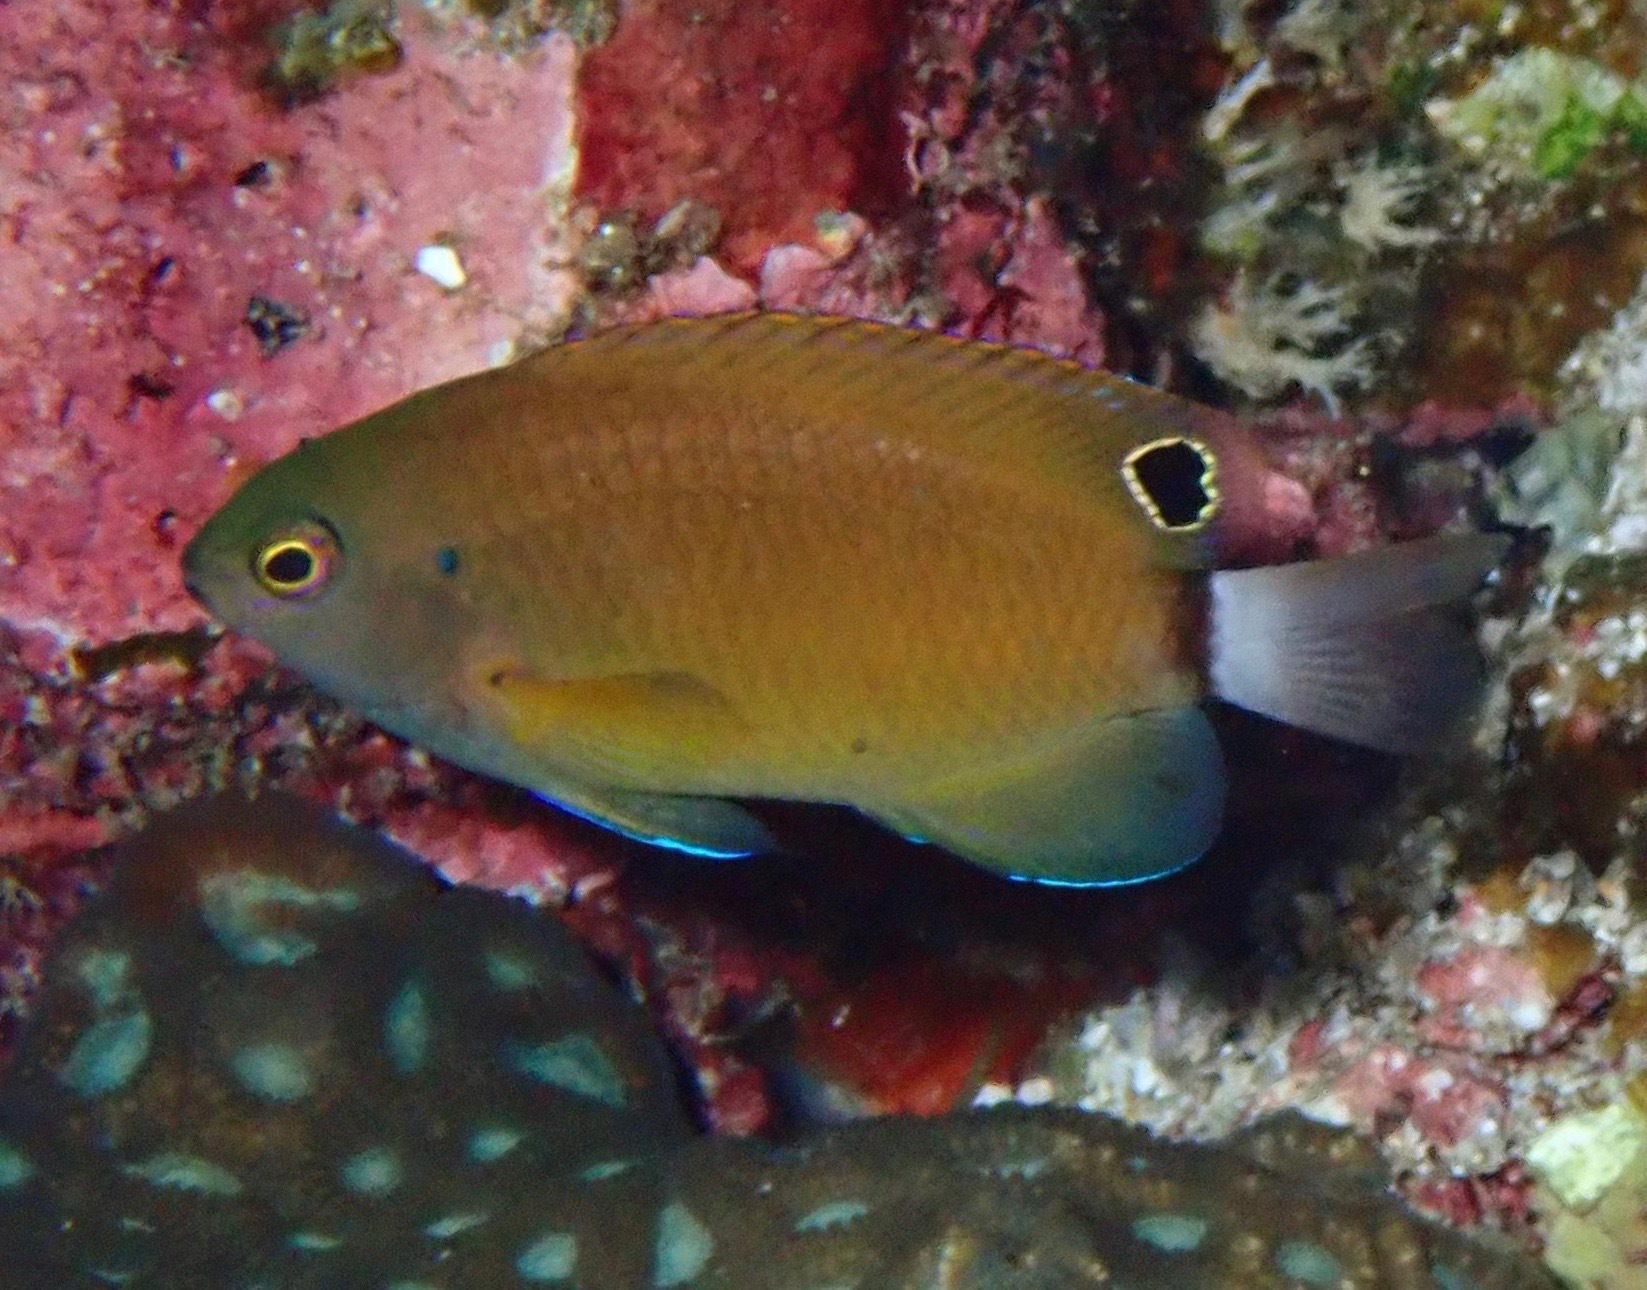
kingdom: Animalia
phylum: Chordata
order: Perciformes
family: Pomacentridae
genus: Pomacentrus
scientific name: Pomacentrus chrysurus
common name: White-tail damsel
